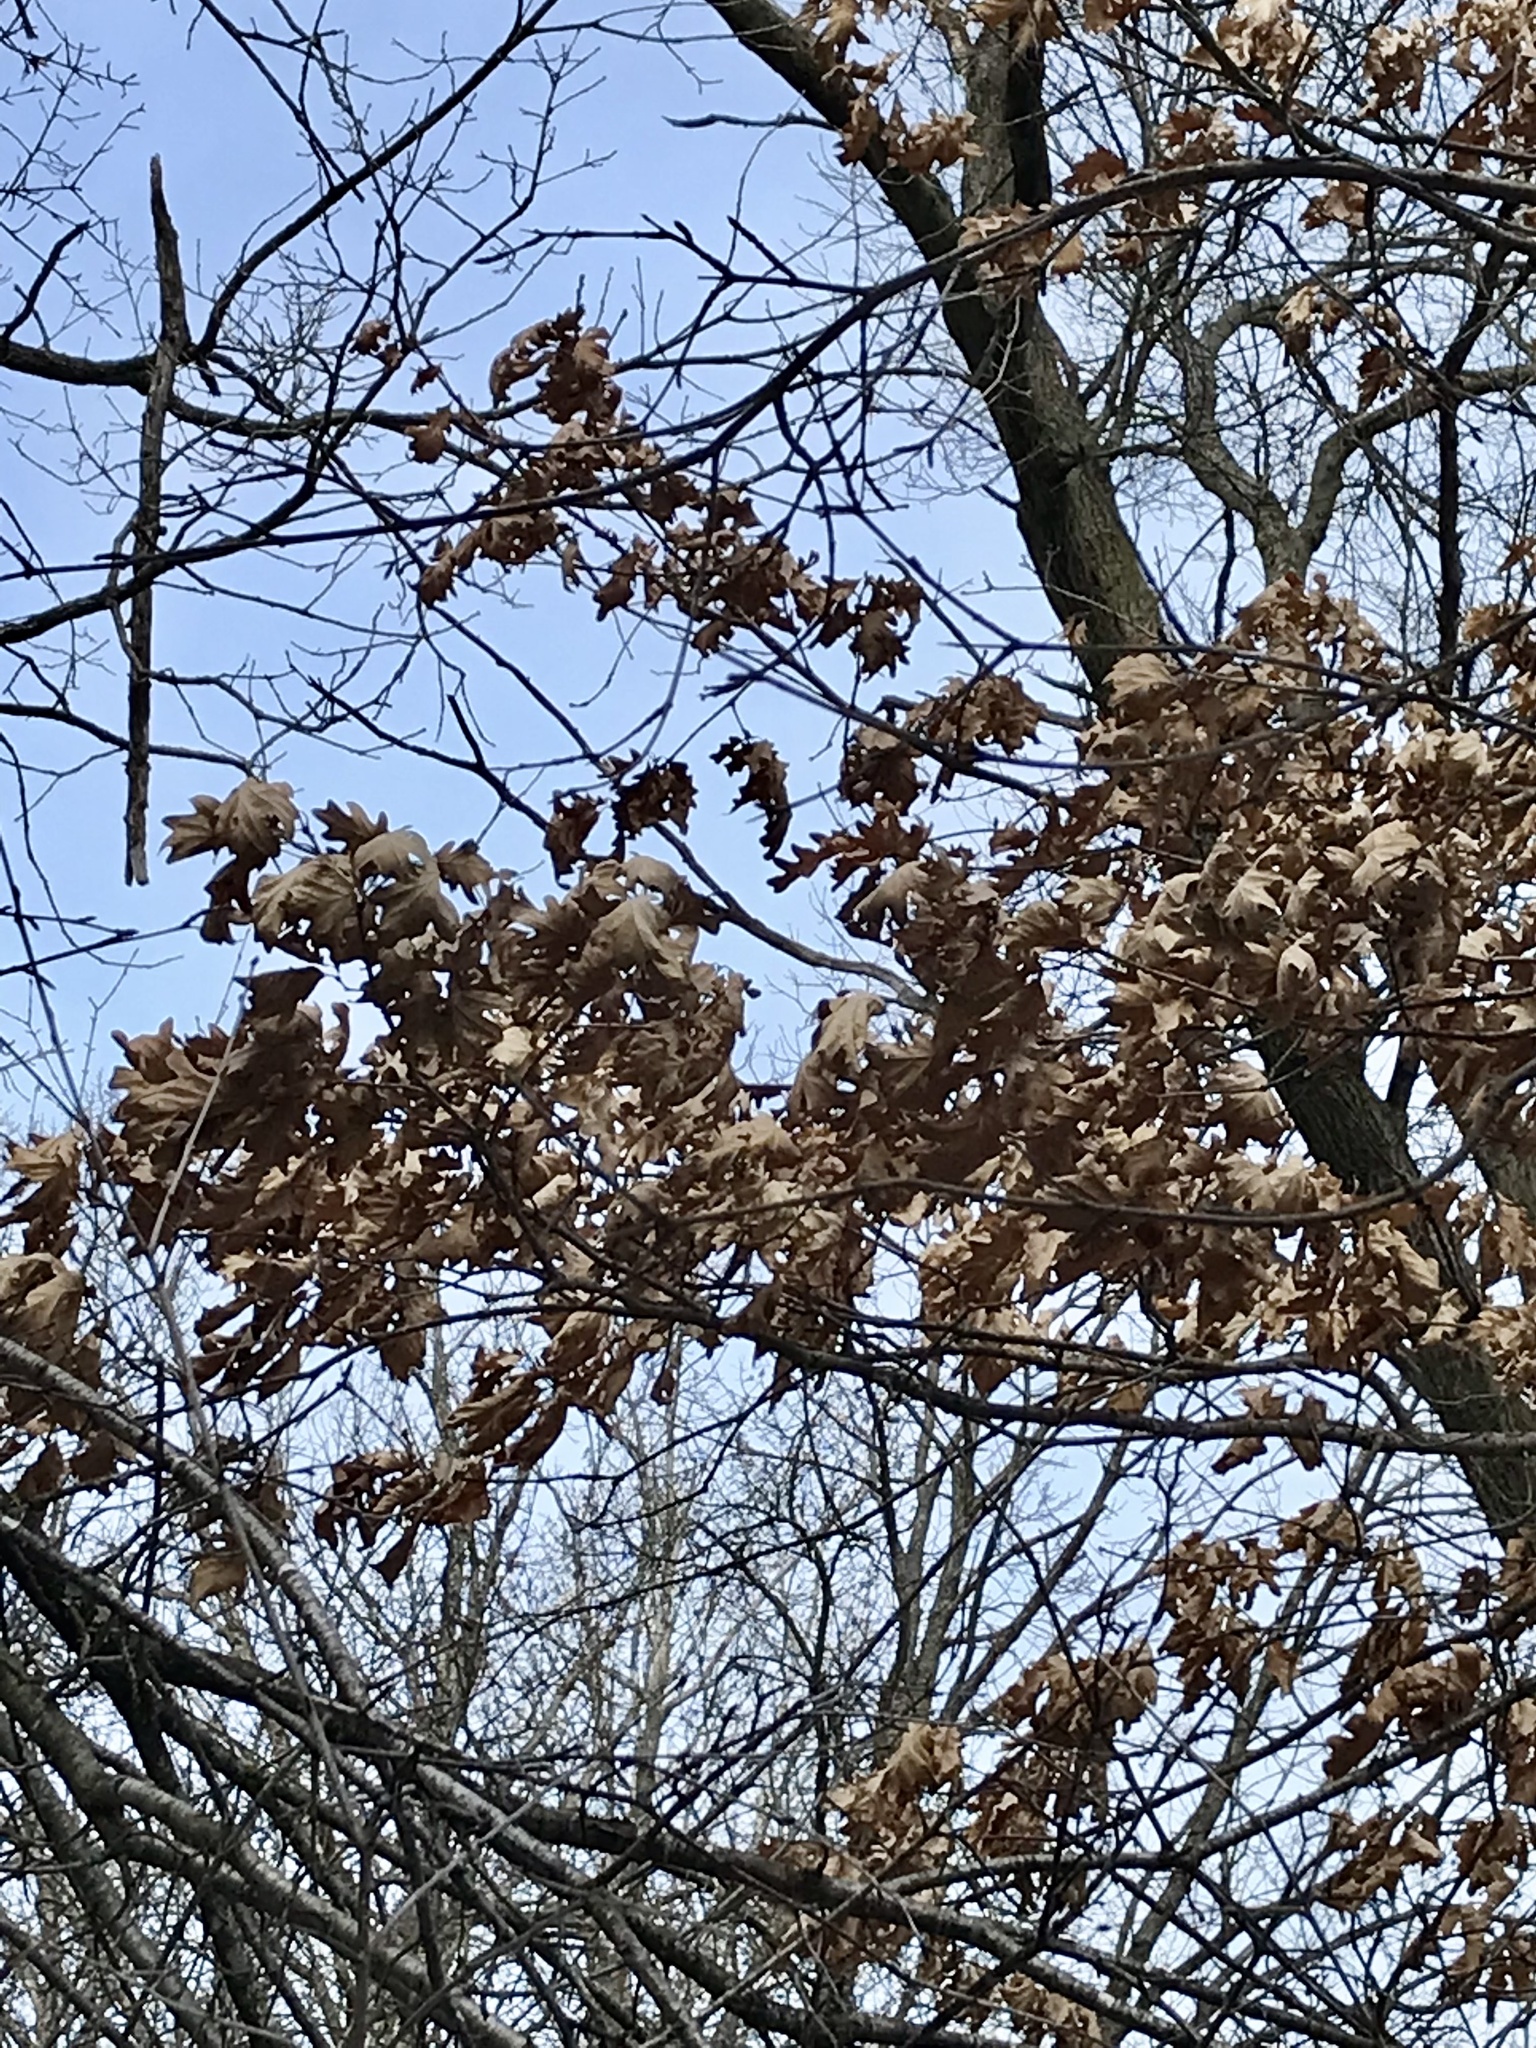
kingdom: Plantae
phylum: Tracheophyta
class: Magnoliopsida
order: Fagales
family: Fagaceae
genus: Quercus
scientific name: Quercus alba
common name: White oak
